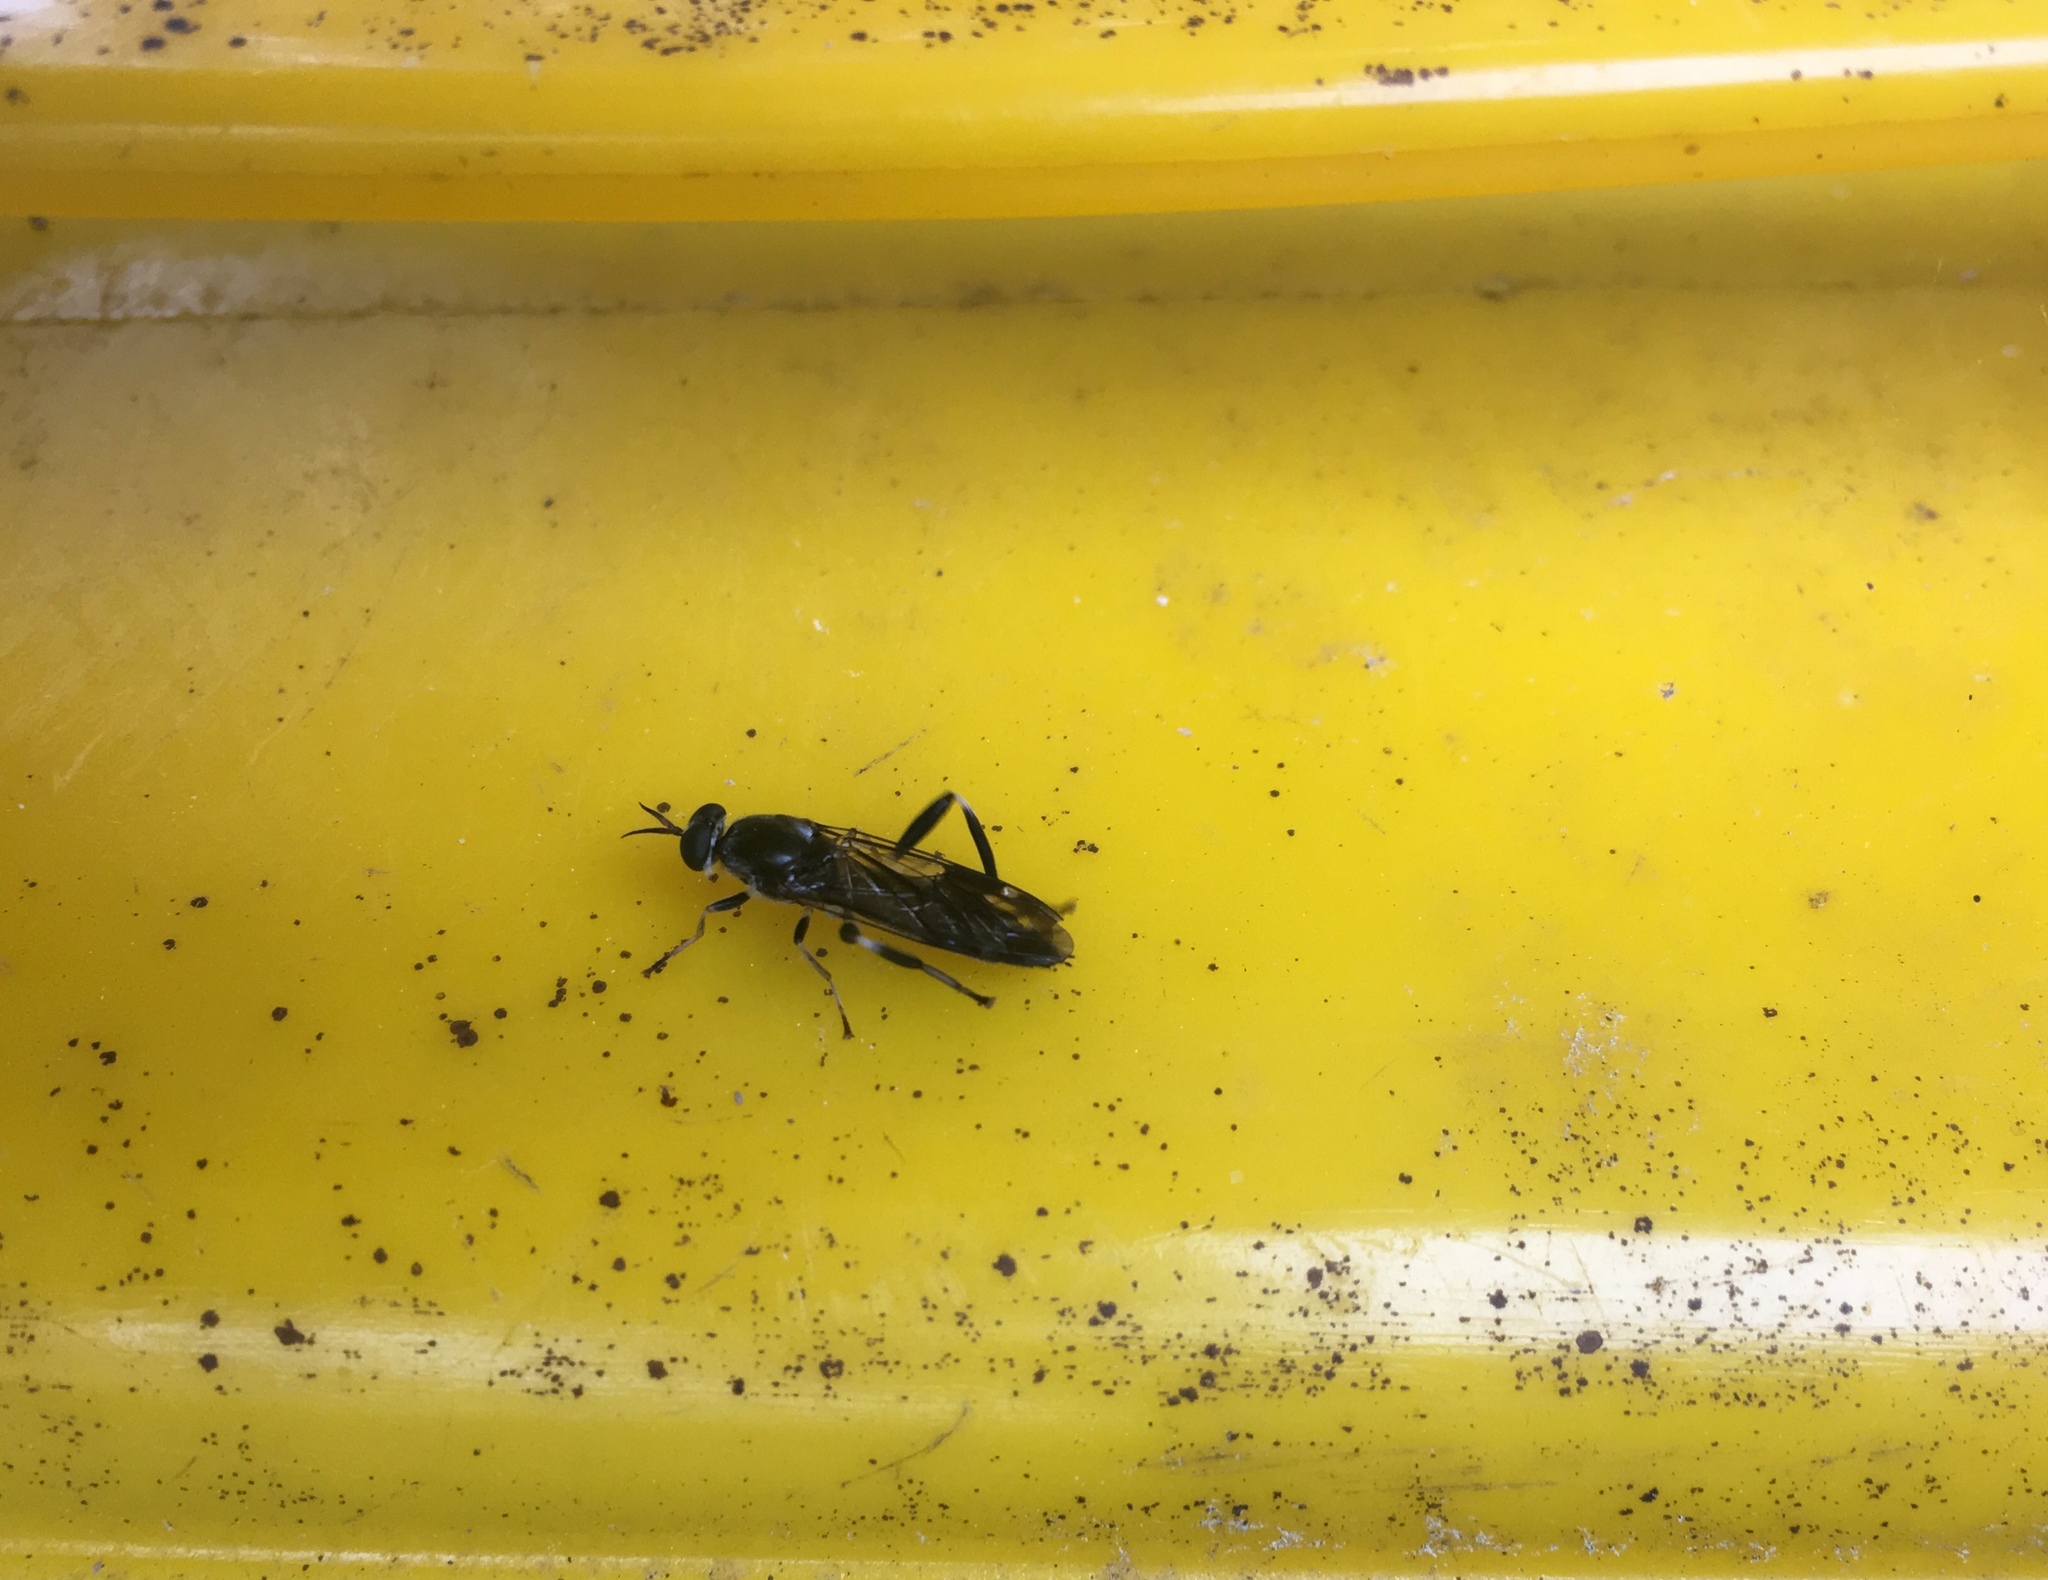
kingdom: Animalia
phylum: Arthropoda
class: Insecta
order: Diptera
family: Stratiomyidae
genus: Exaireta
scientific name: Exaireta spinigera
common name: Blue soldier fly
